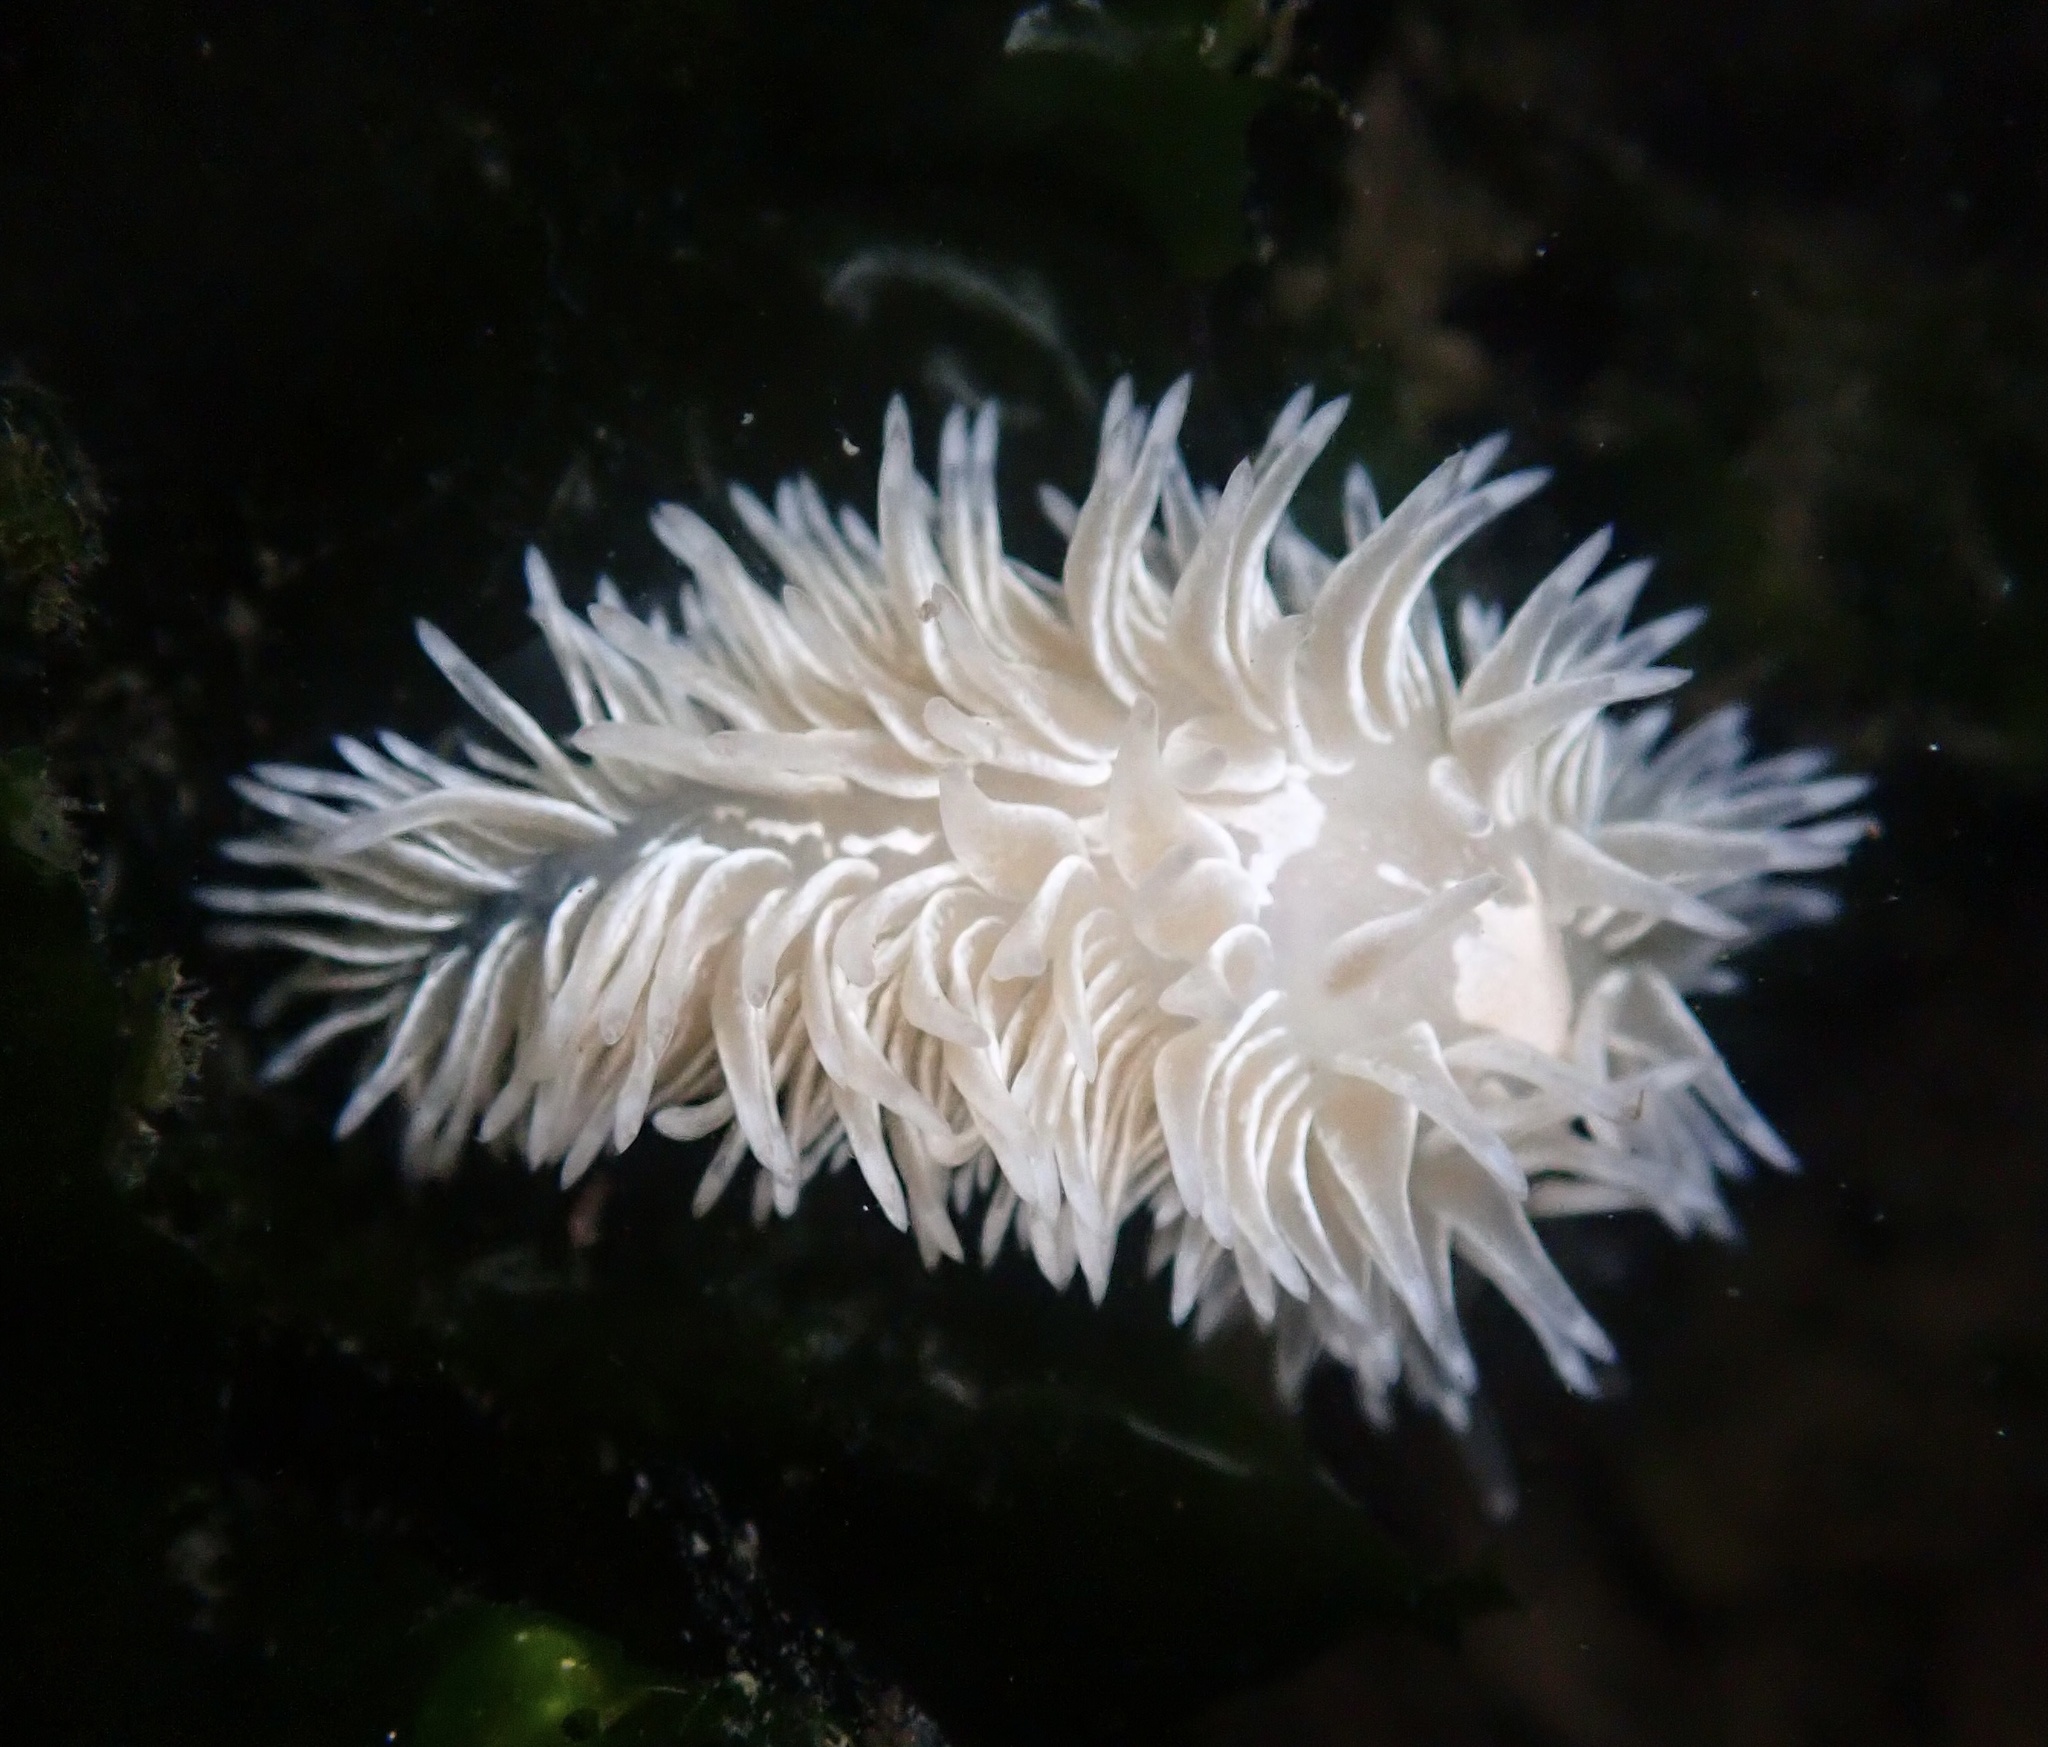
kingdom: Animalia
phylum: Mollusca
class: Gastropoda
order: Nudibranchia
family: Aeolidiidae
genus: Aeolidia
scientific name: Aeolidia loui
